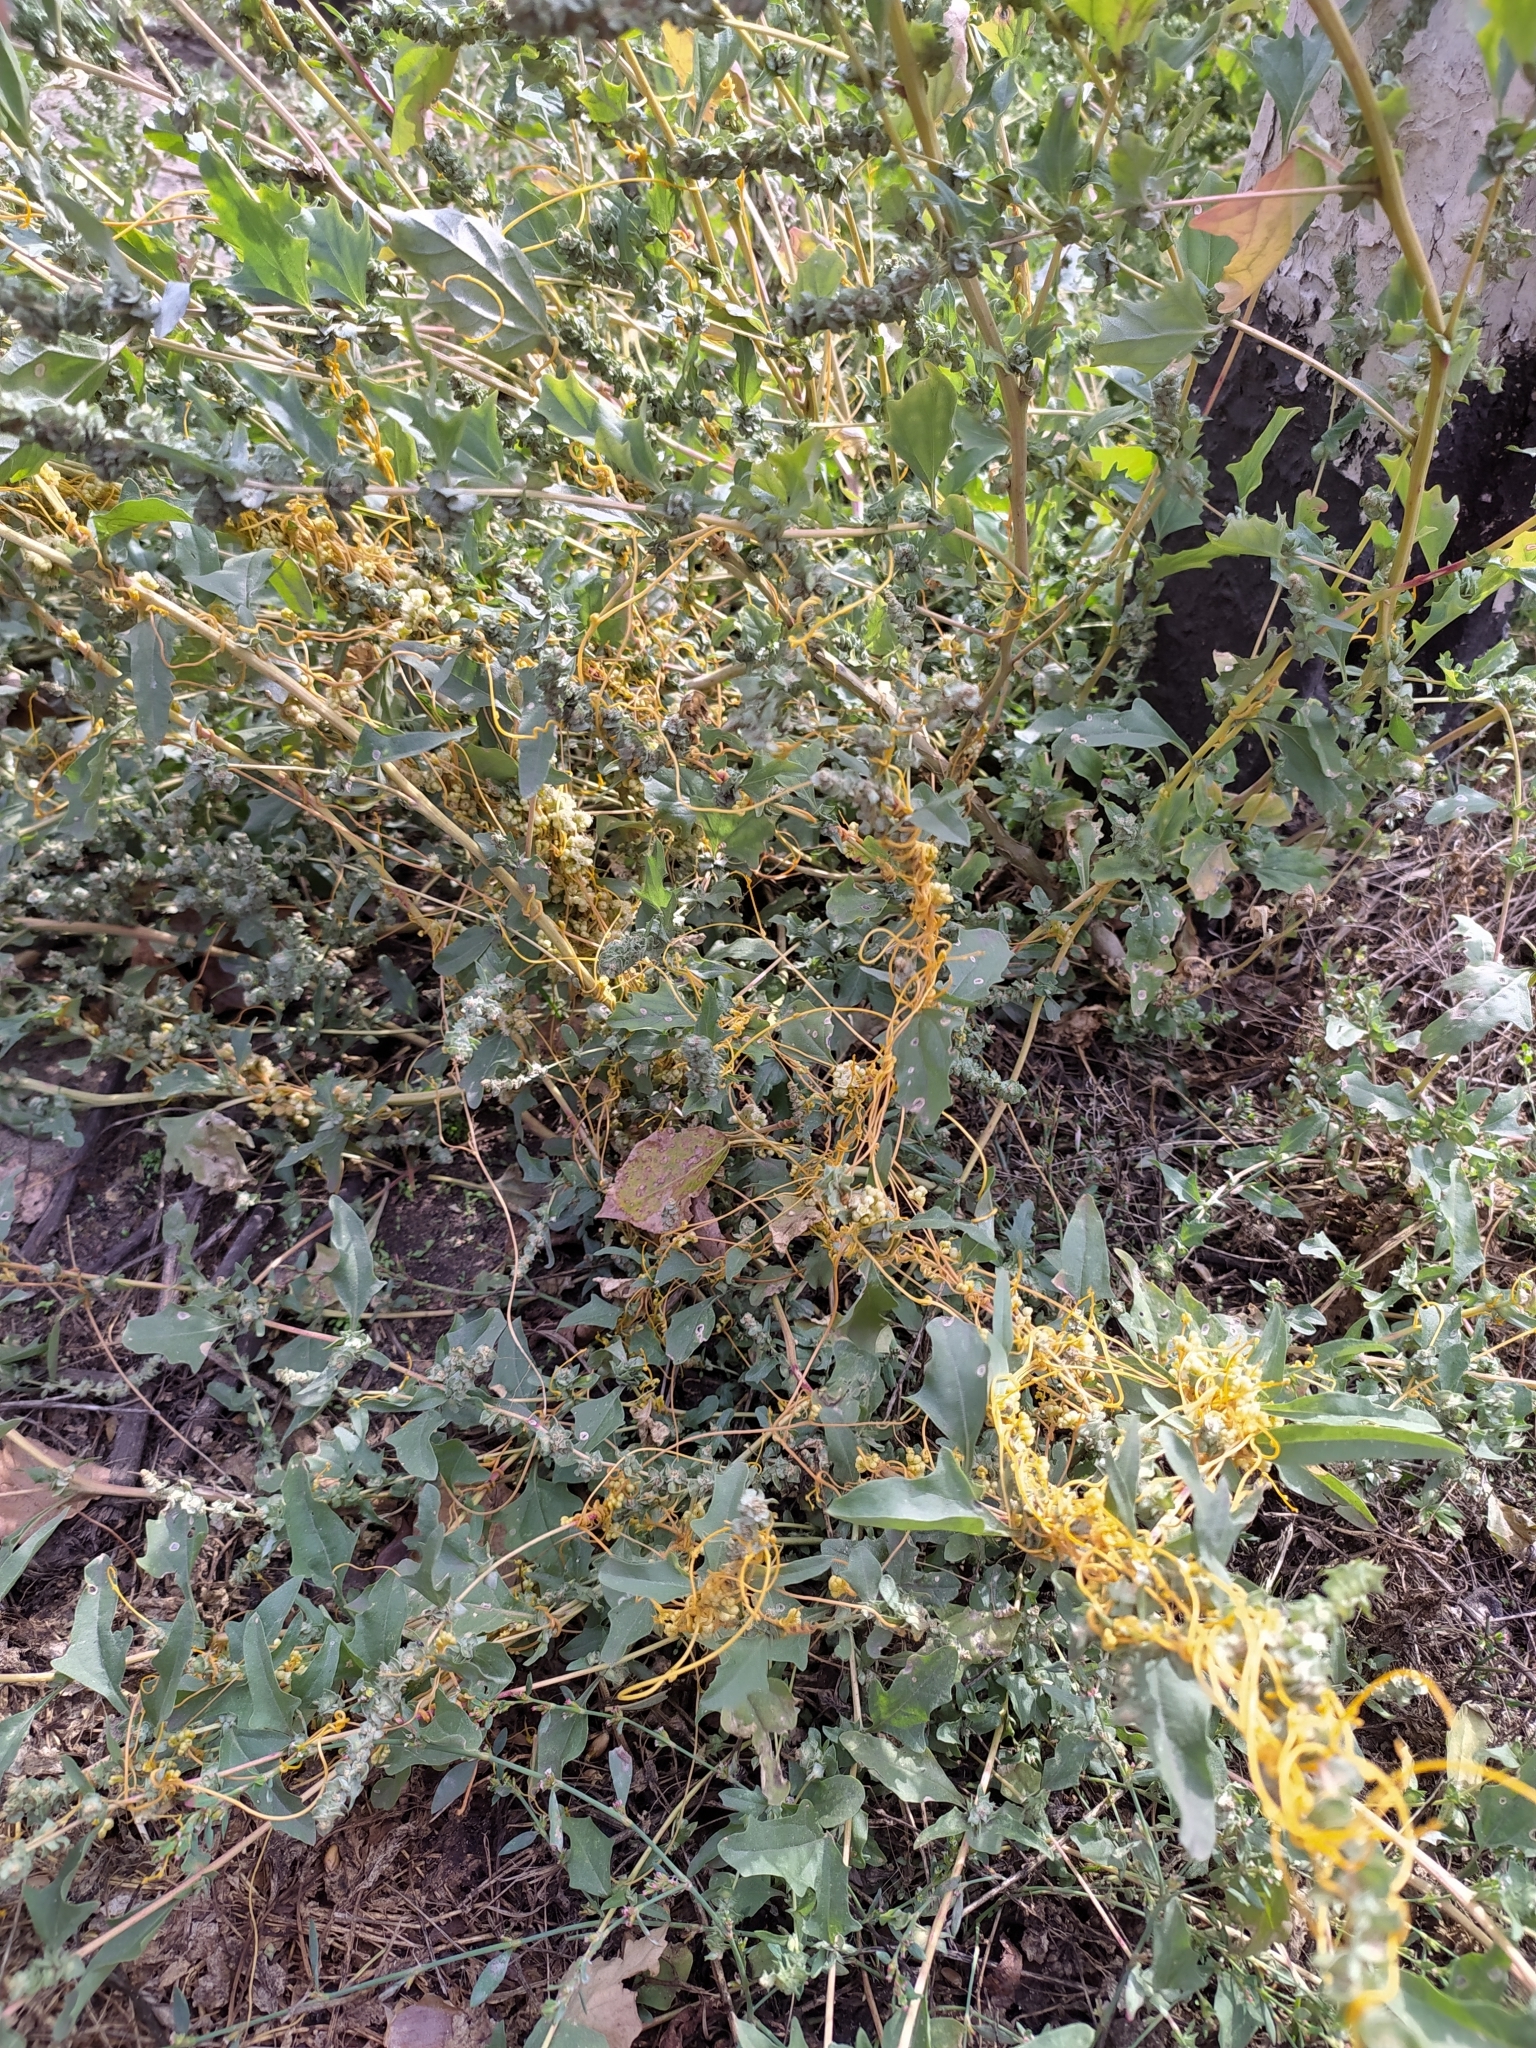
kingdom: Plantae
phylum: Tracheophyta
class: Magnoliopsida
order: Solanales
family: Convolvulaceae
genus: Cuscuta
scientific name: Cuscuta campestris
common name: Yellow dodder
